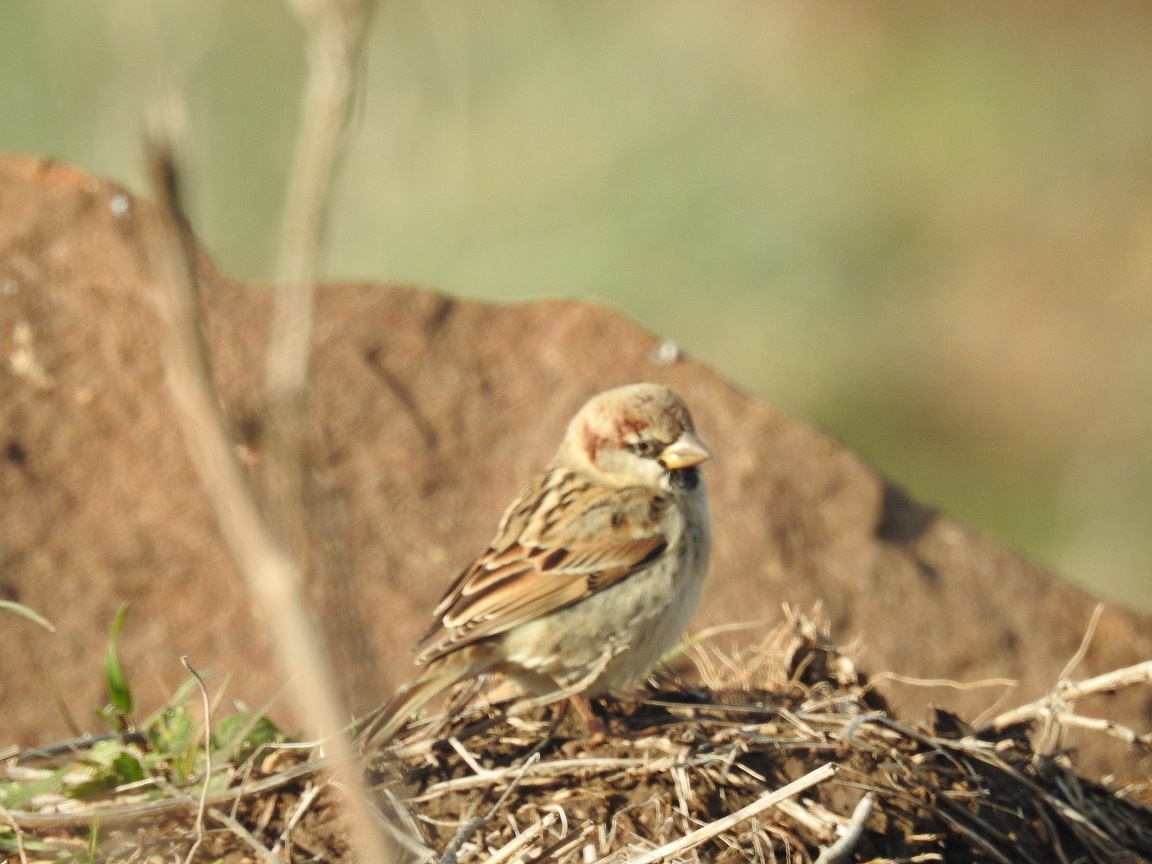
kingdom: Animalia
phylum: Chordata
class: Aves
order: Passeriformes
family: Passeridae
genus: Passer
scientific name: Passer domesticus
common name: House sparrow
